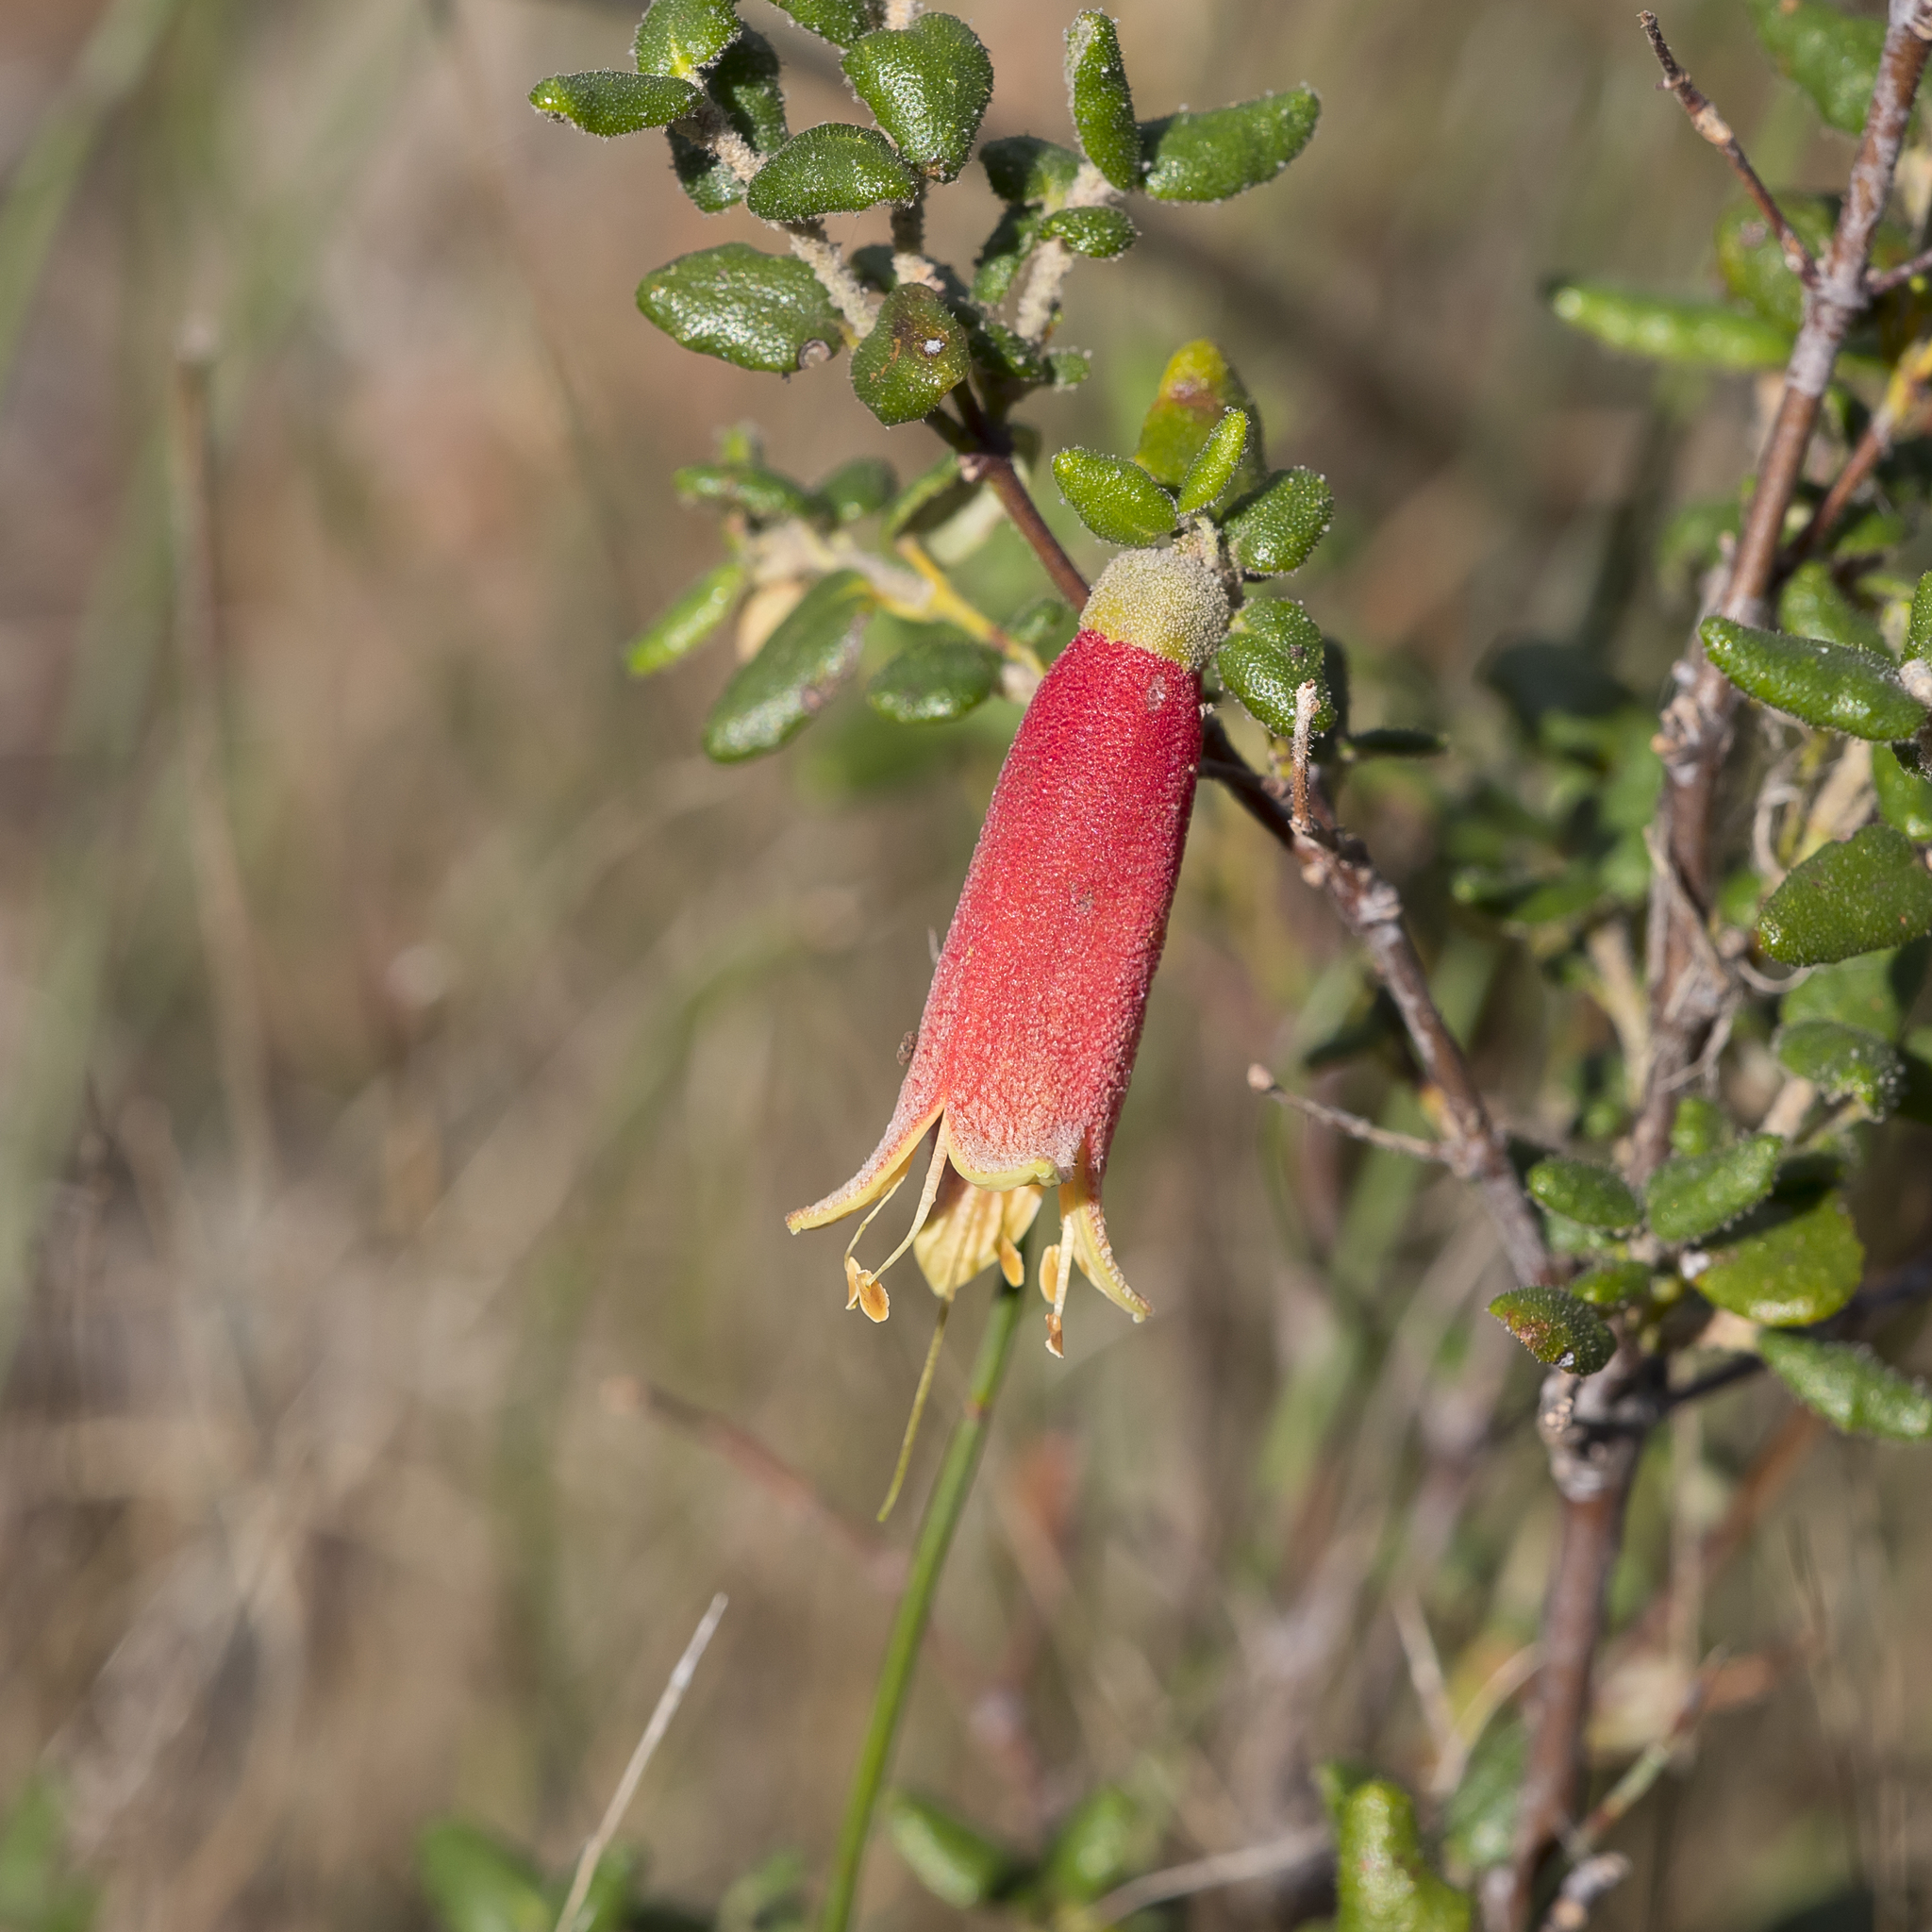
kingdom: Plantae
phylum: Tracheophyta
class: Magnoliopsida
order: Sapindales
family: Rutaceae
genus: Correa
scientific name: Correa reflexa
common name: Common correa
